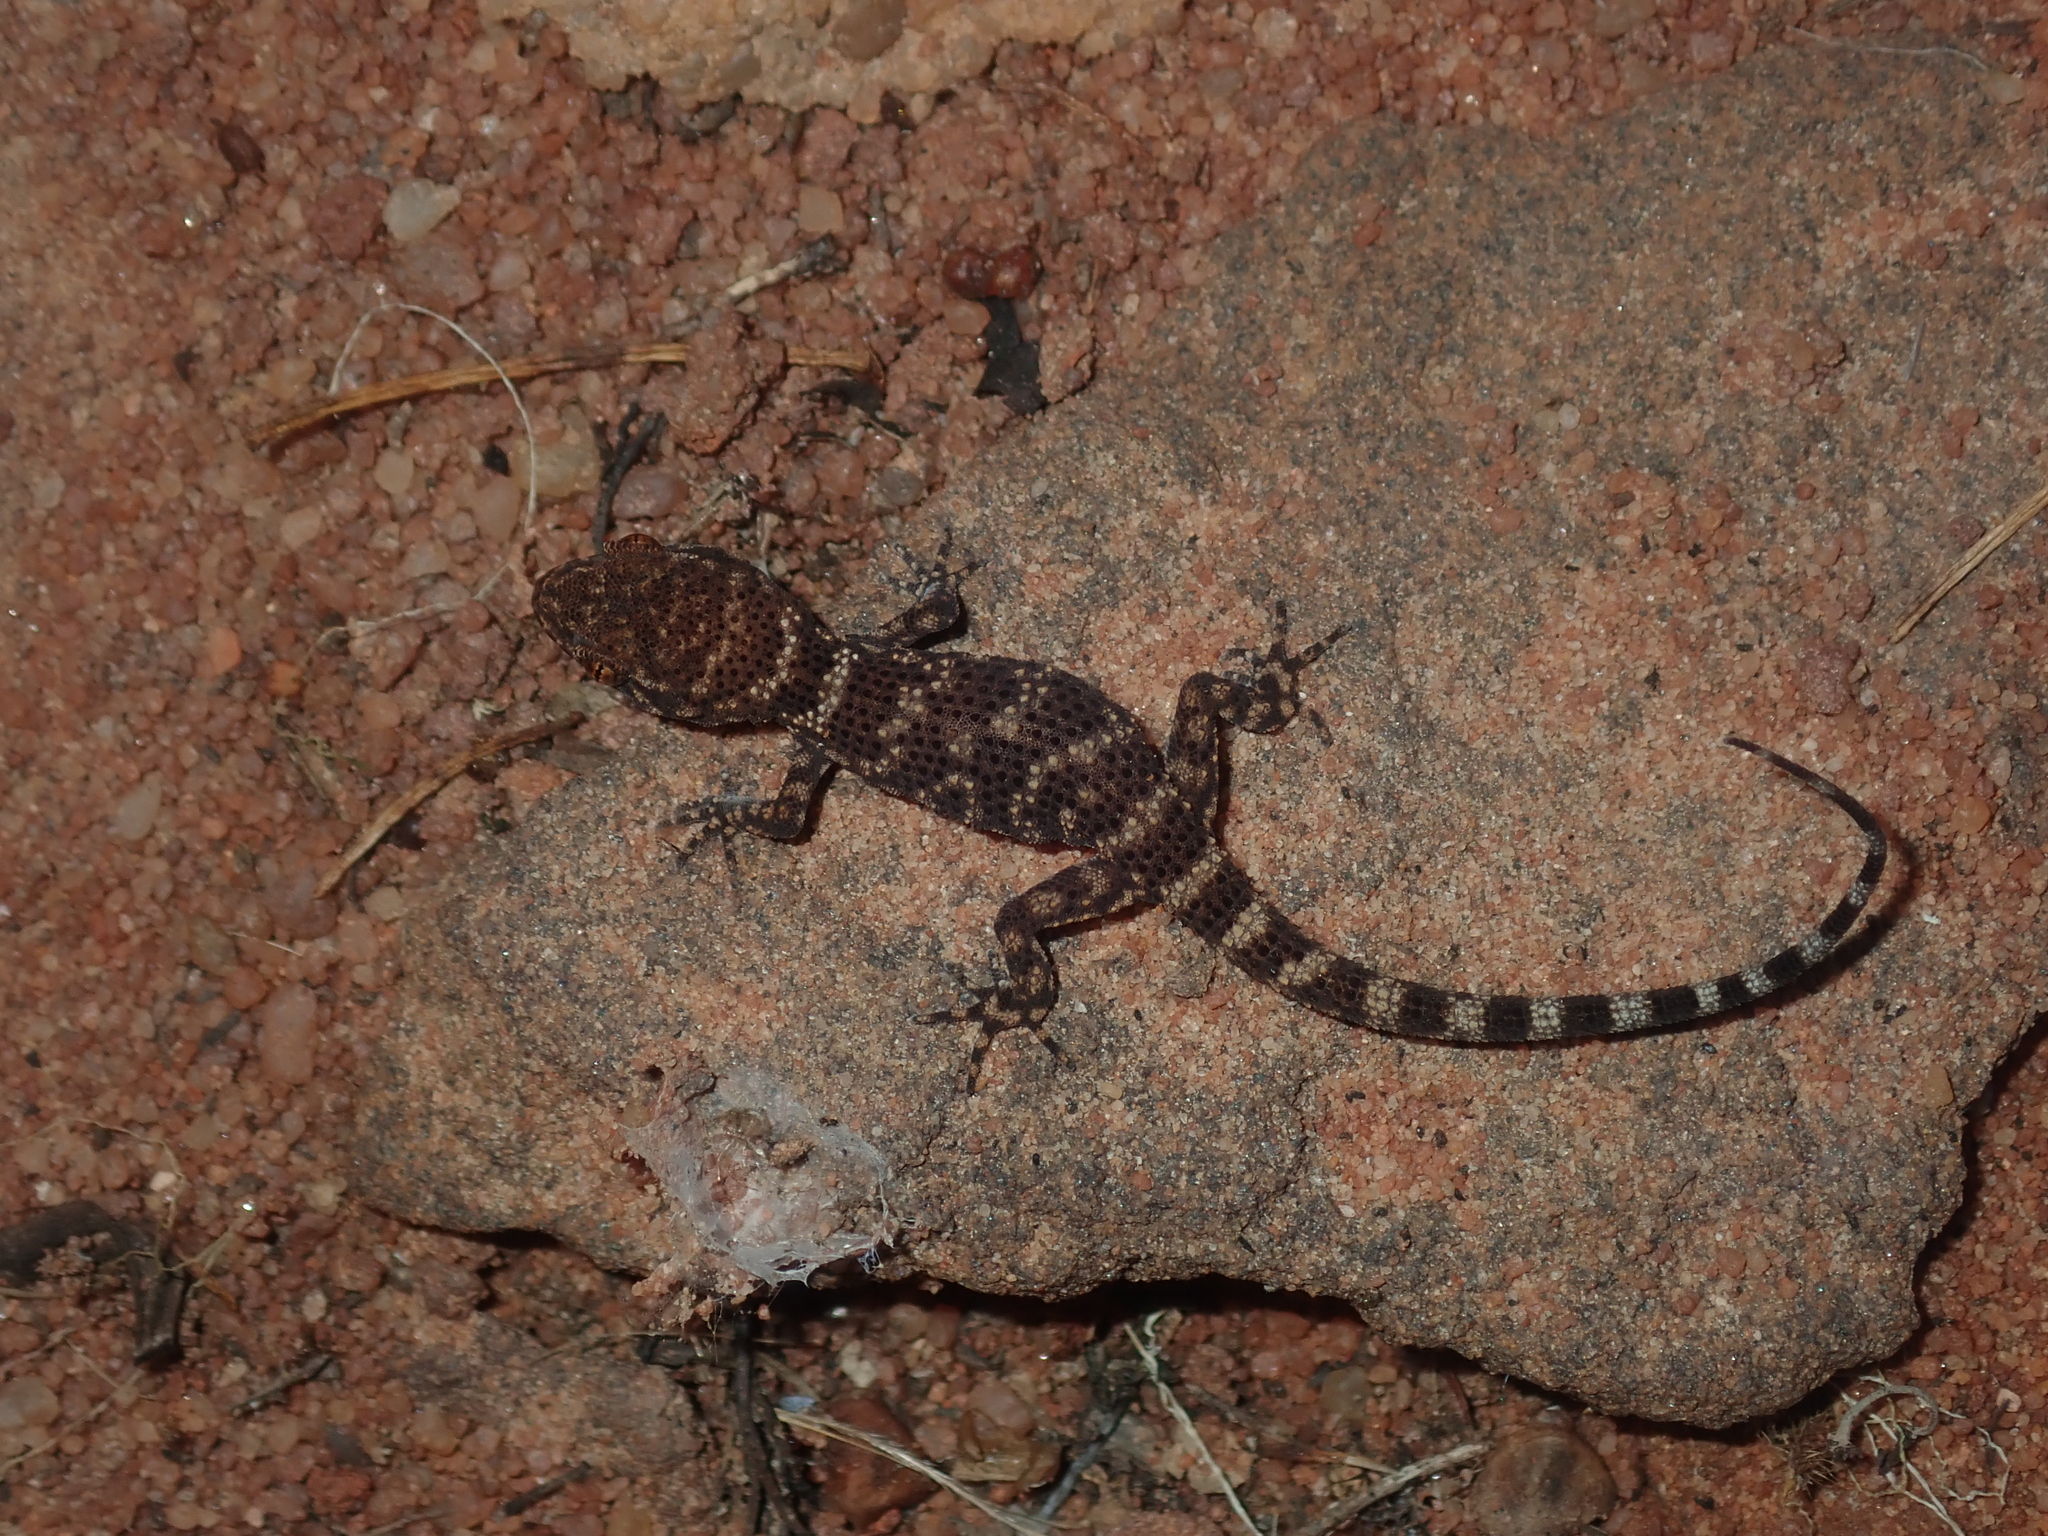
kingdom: Animalia
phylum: Chordata
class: Squamata
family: Gekkonidae
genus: Heteronotia
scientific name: Heteronotia binoei
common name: Bynoe's gecko
